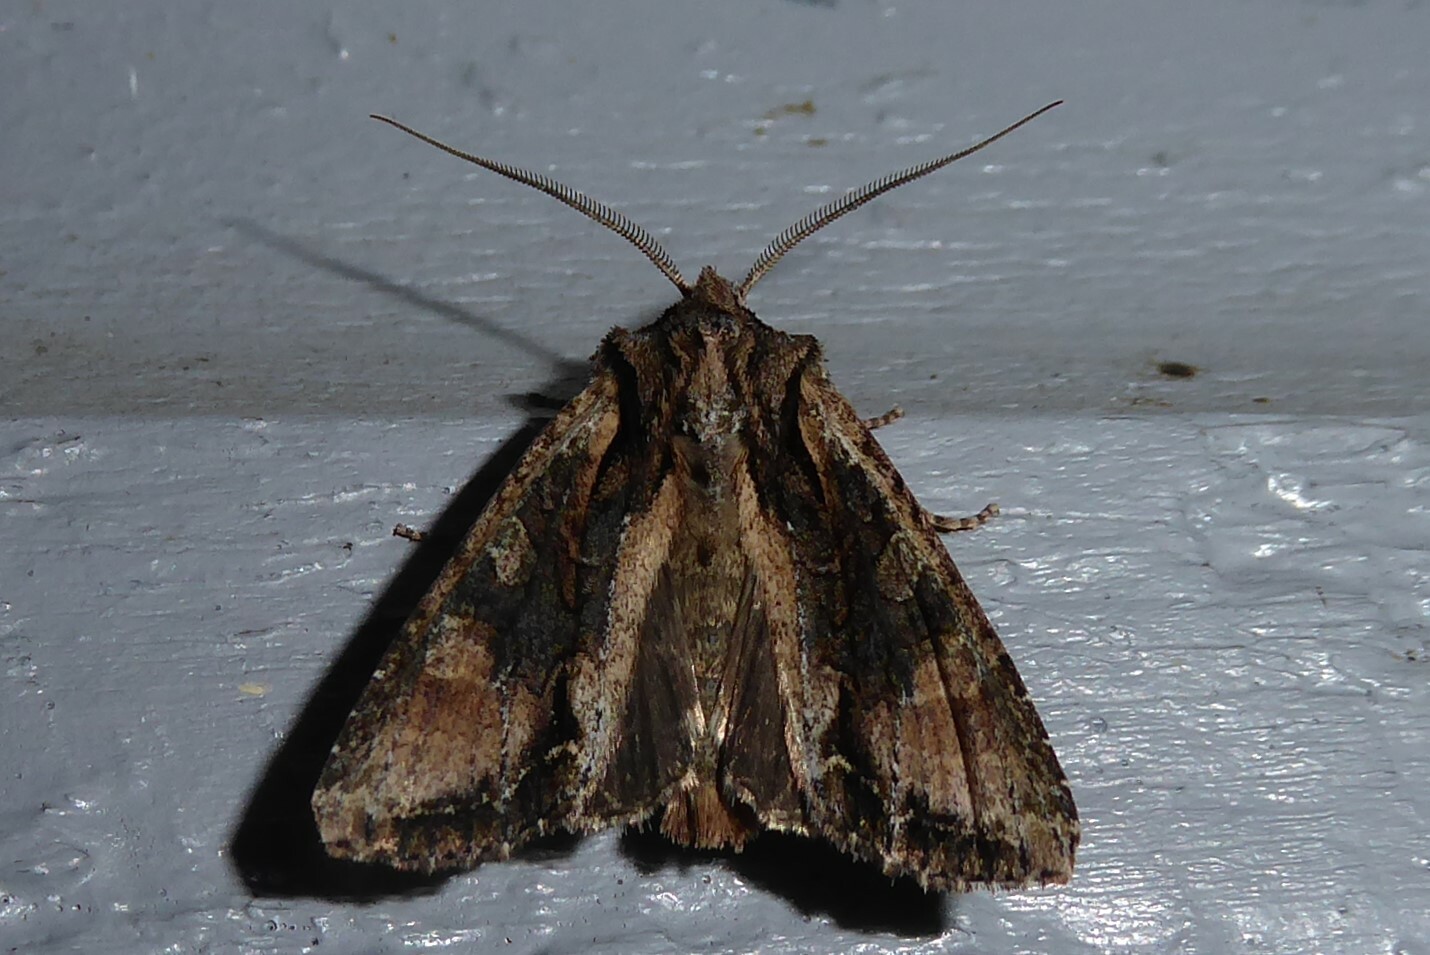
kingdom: Animalia
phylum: Arthropoda
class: Insecta
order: Lepidoptera
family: Noctuidae
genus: Ichneutica
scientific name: Ichneutica mutans
